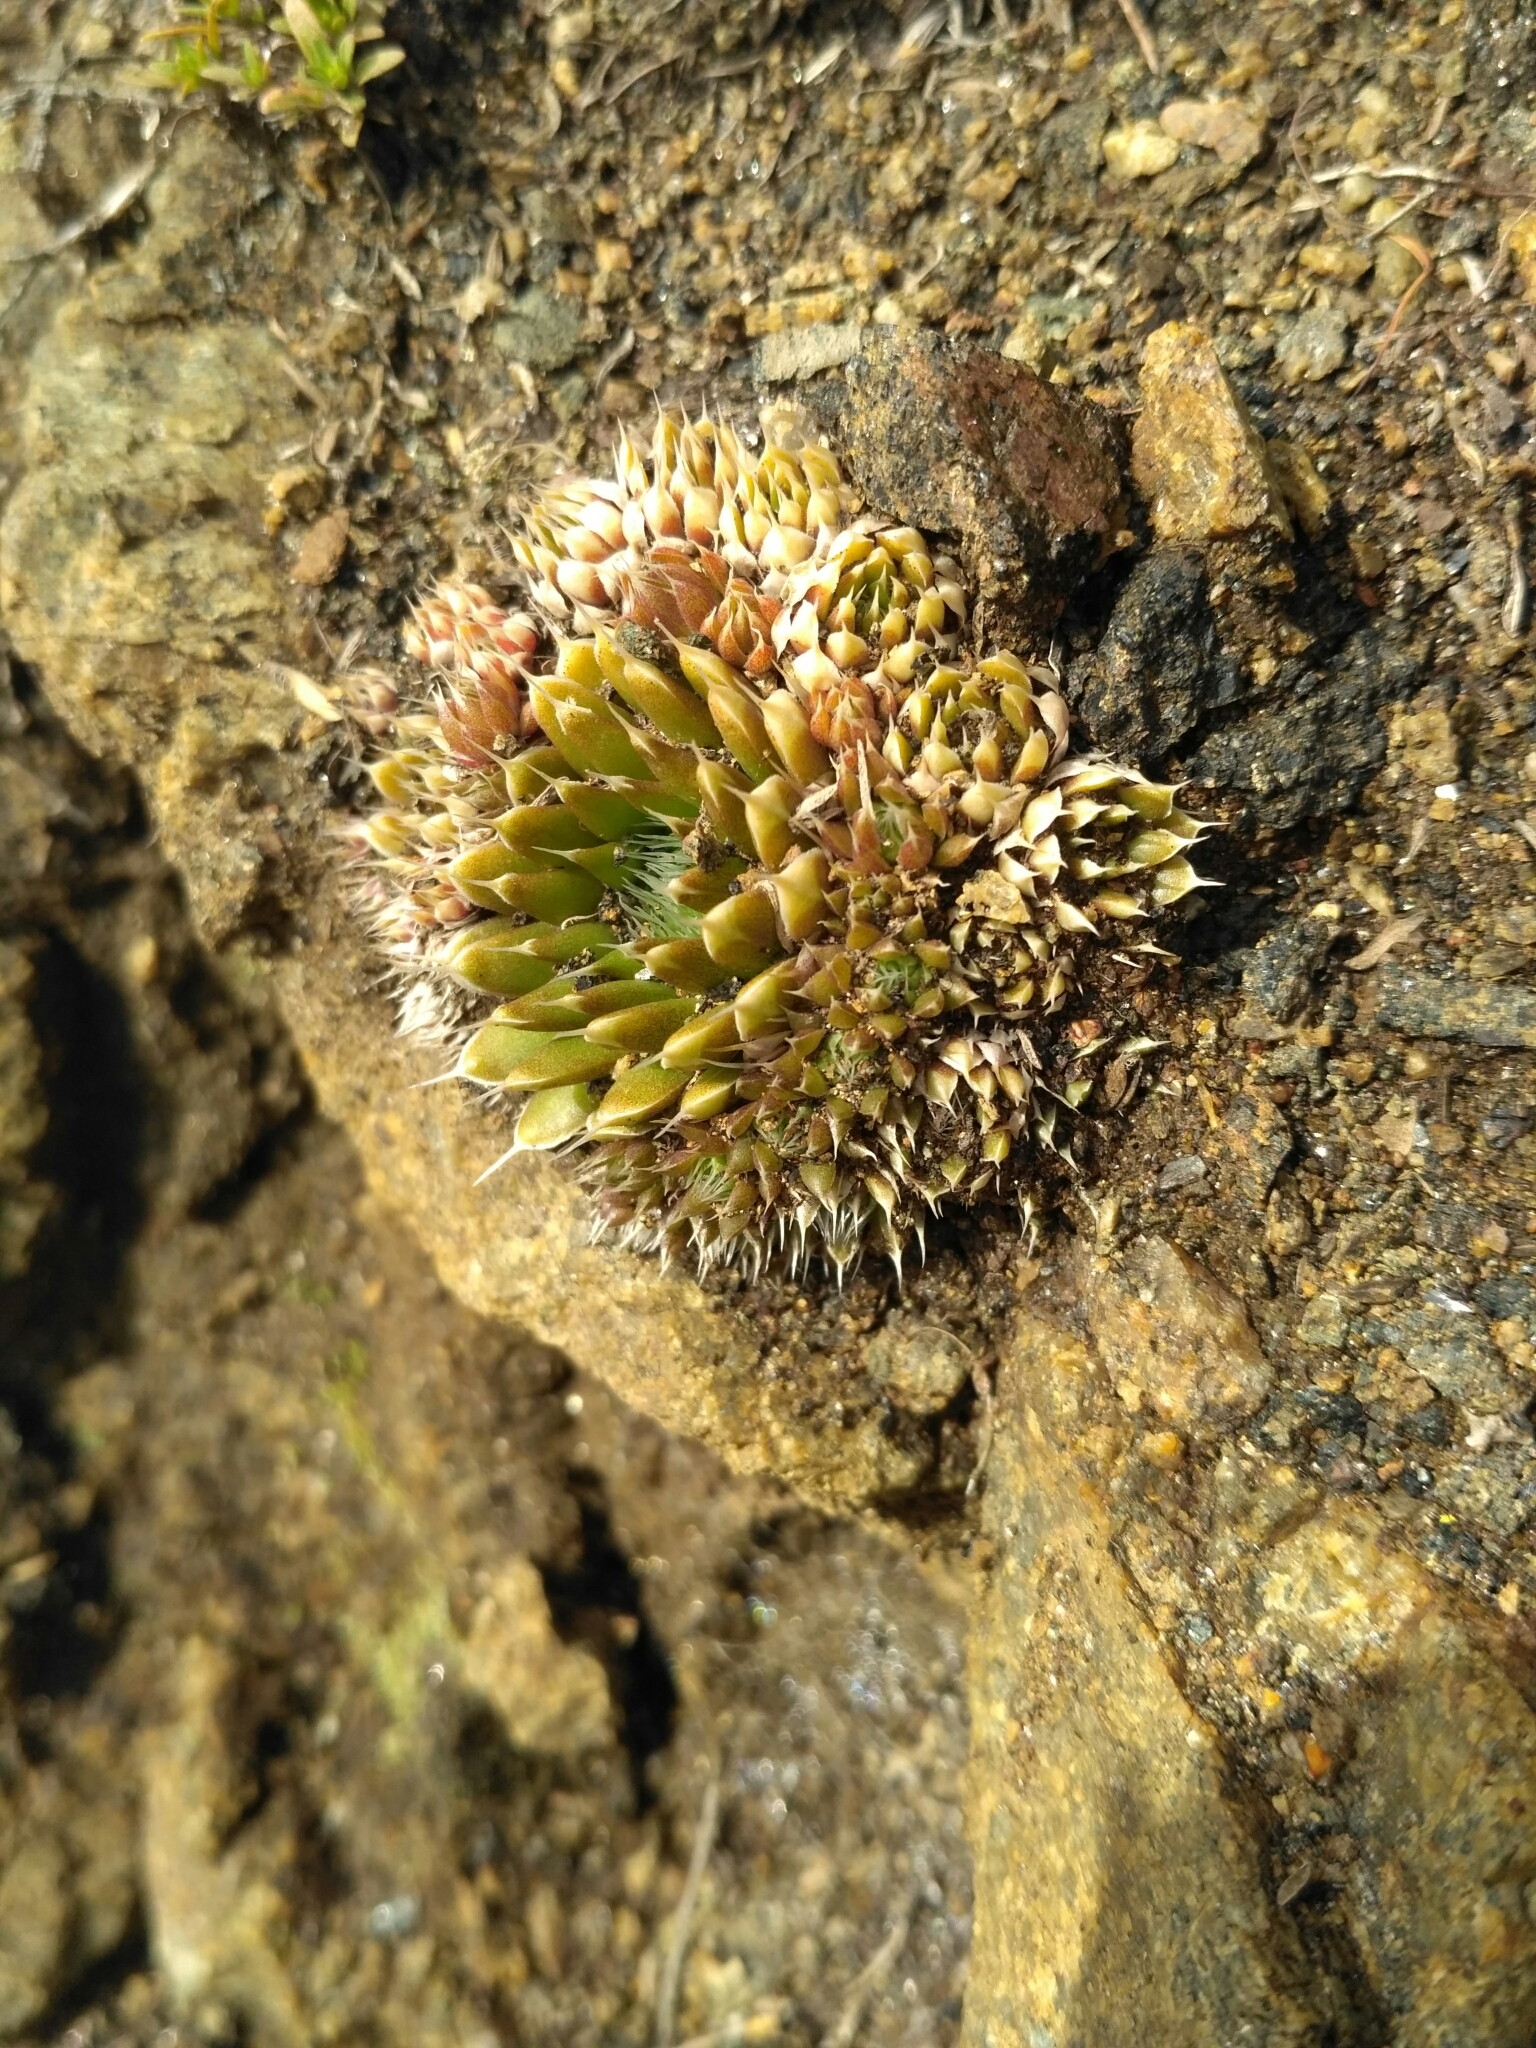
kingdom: Plantae
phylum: Tracheophyta
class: Magnoliopsida
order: Saxifragales
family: Crassulaceae
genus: Orostachys
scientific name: Orostachys spinosa
